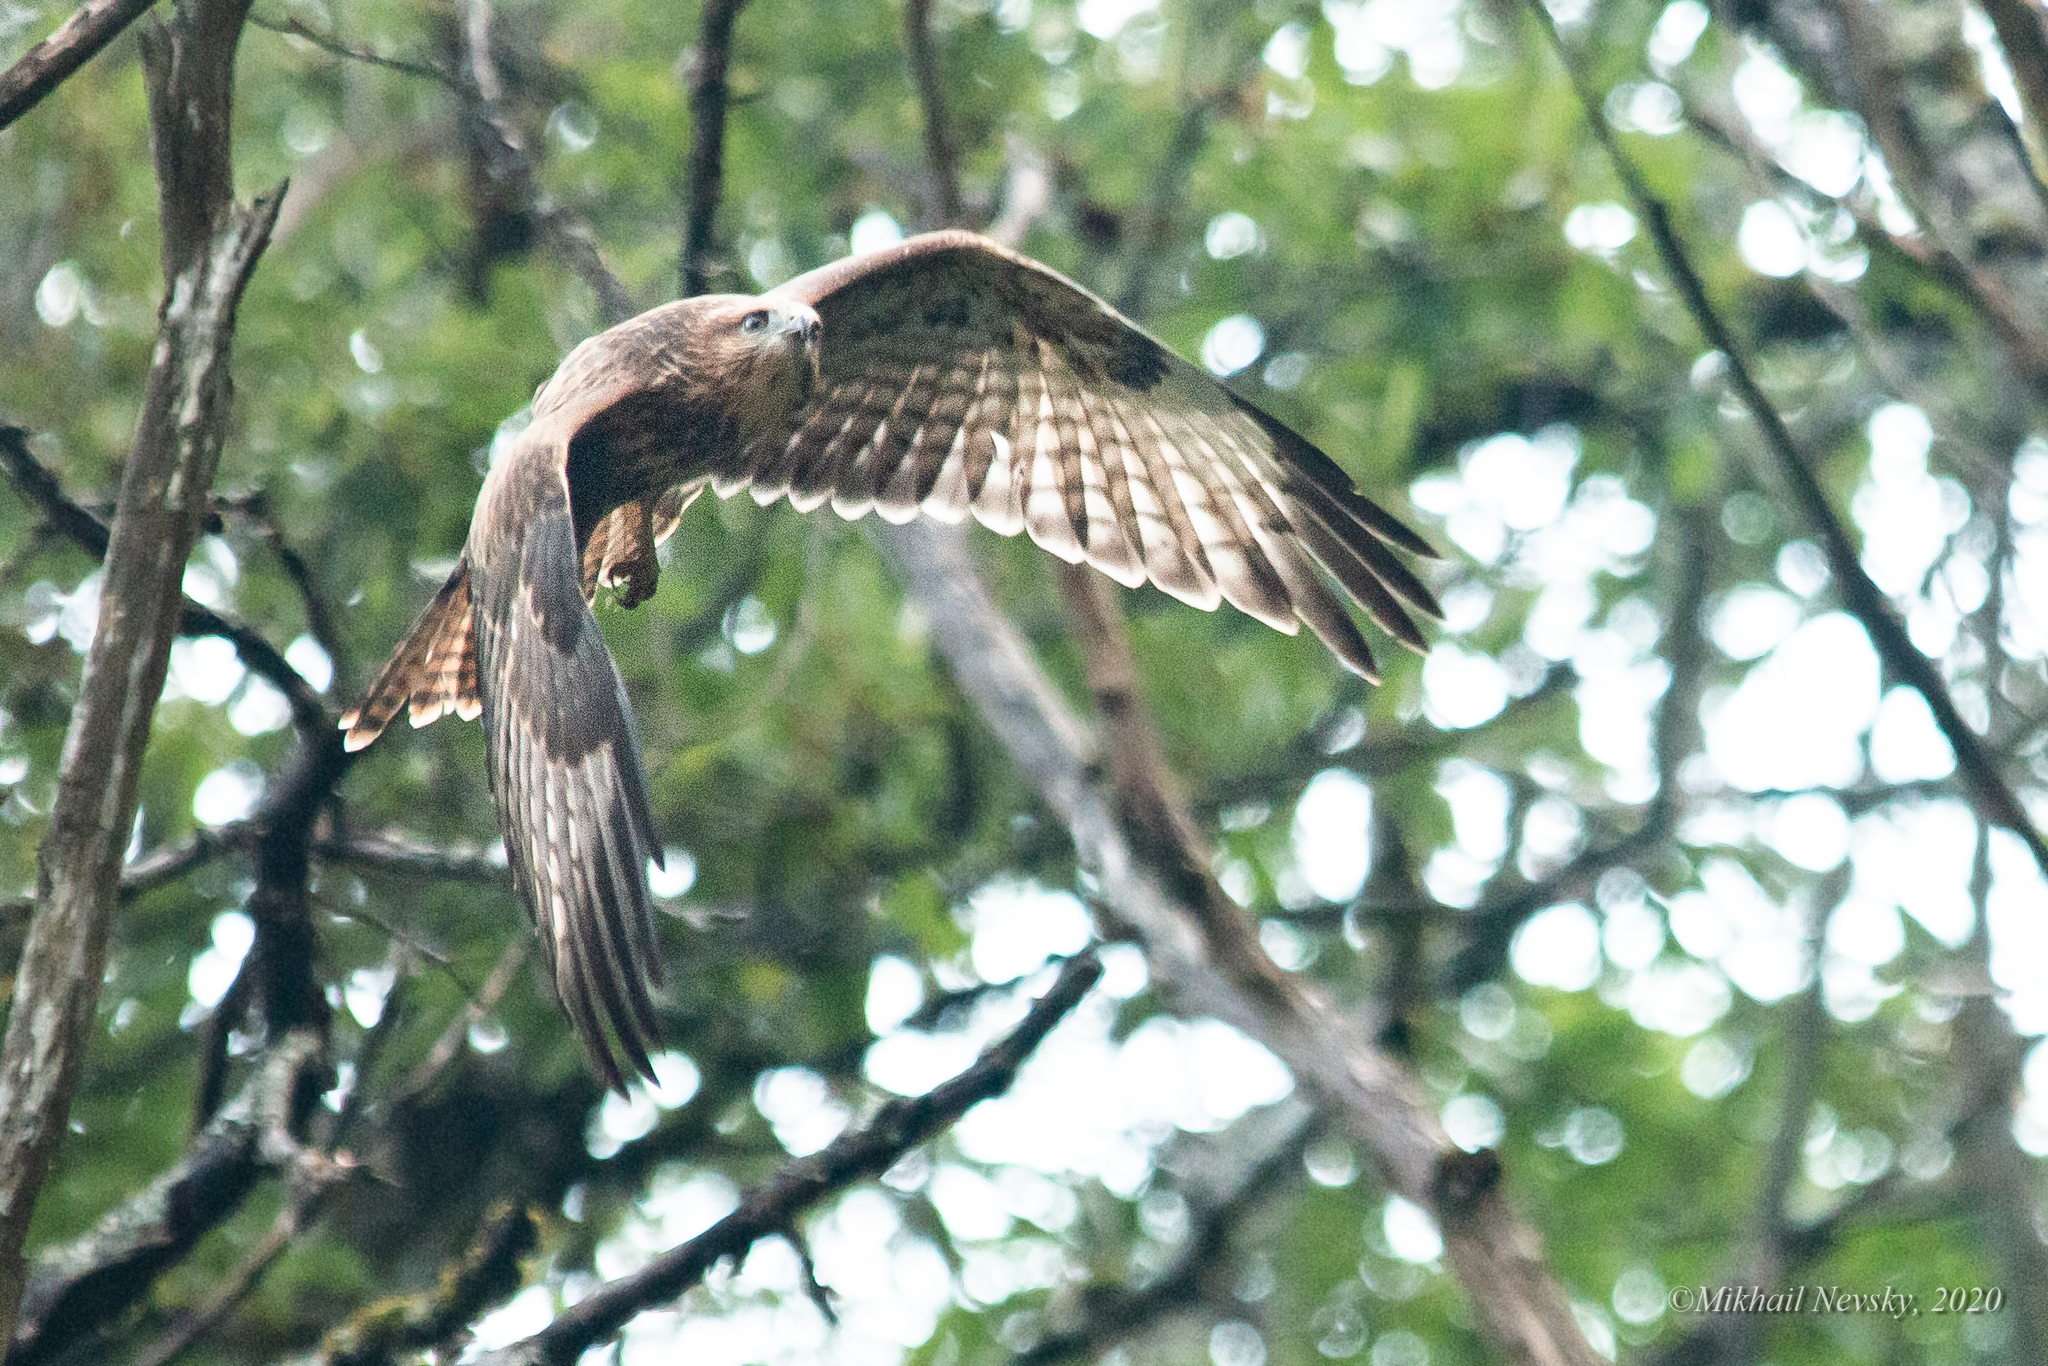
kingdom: Animalia
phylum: Chordata
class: Aves
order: Accipitriformes
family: Accipitridae
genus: Buteo
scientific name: Buteo buteo
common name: Common buzzard
